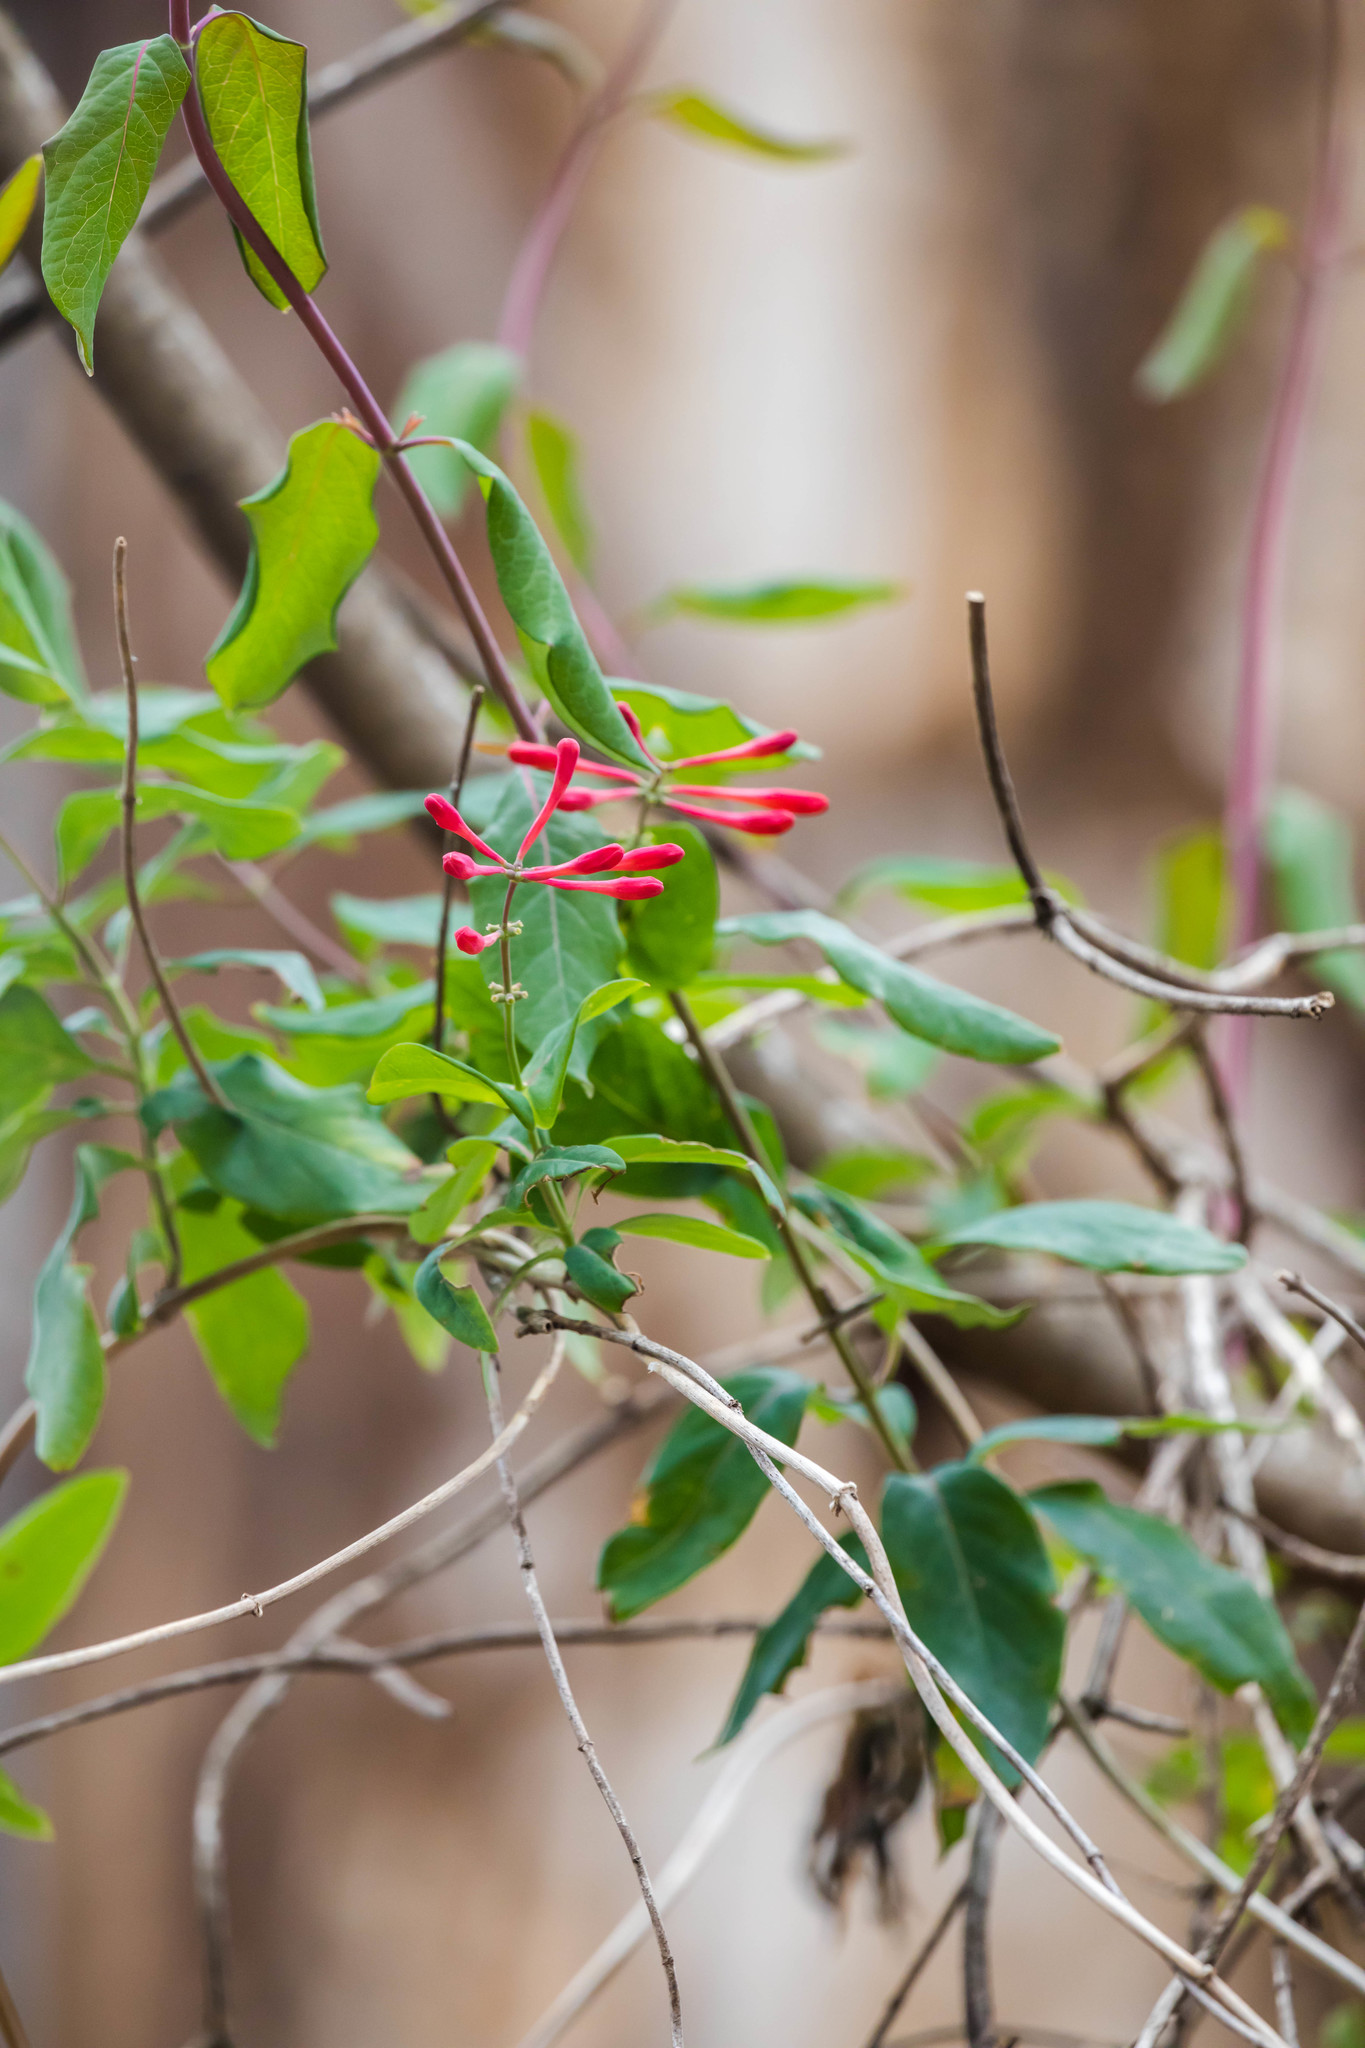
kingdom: Plantae
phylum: Tracheophyta
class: Magnoliopsida
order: Dipsacales
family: Caprifoliaceae
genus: Lonicera
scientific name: Lonicera sempervirens
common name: Coral honeysuckle
